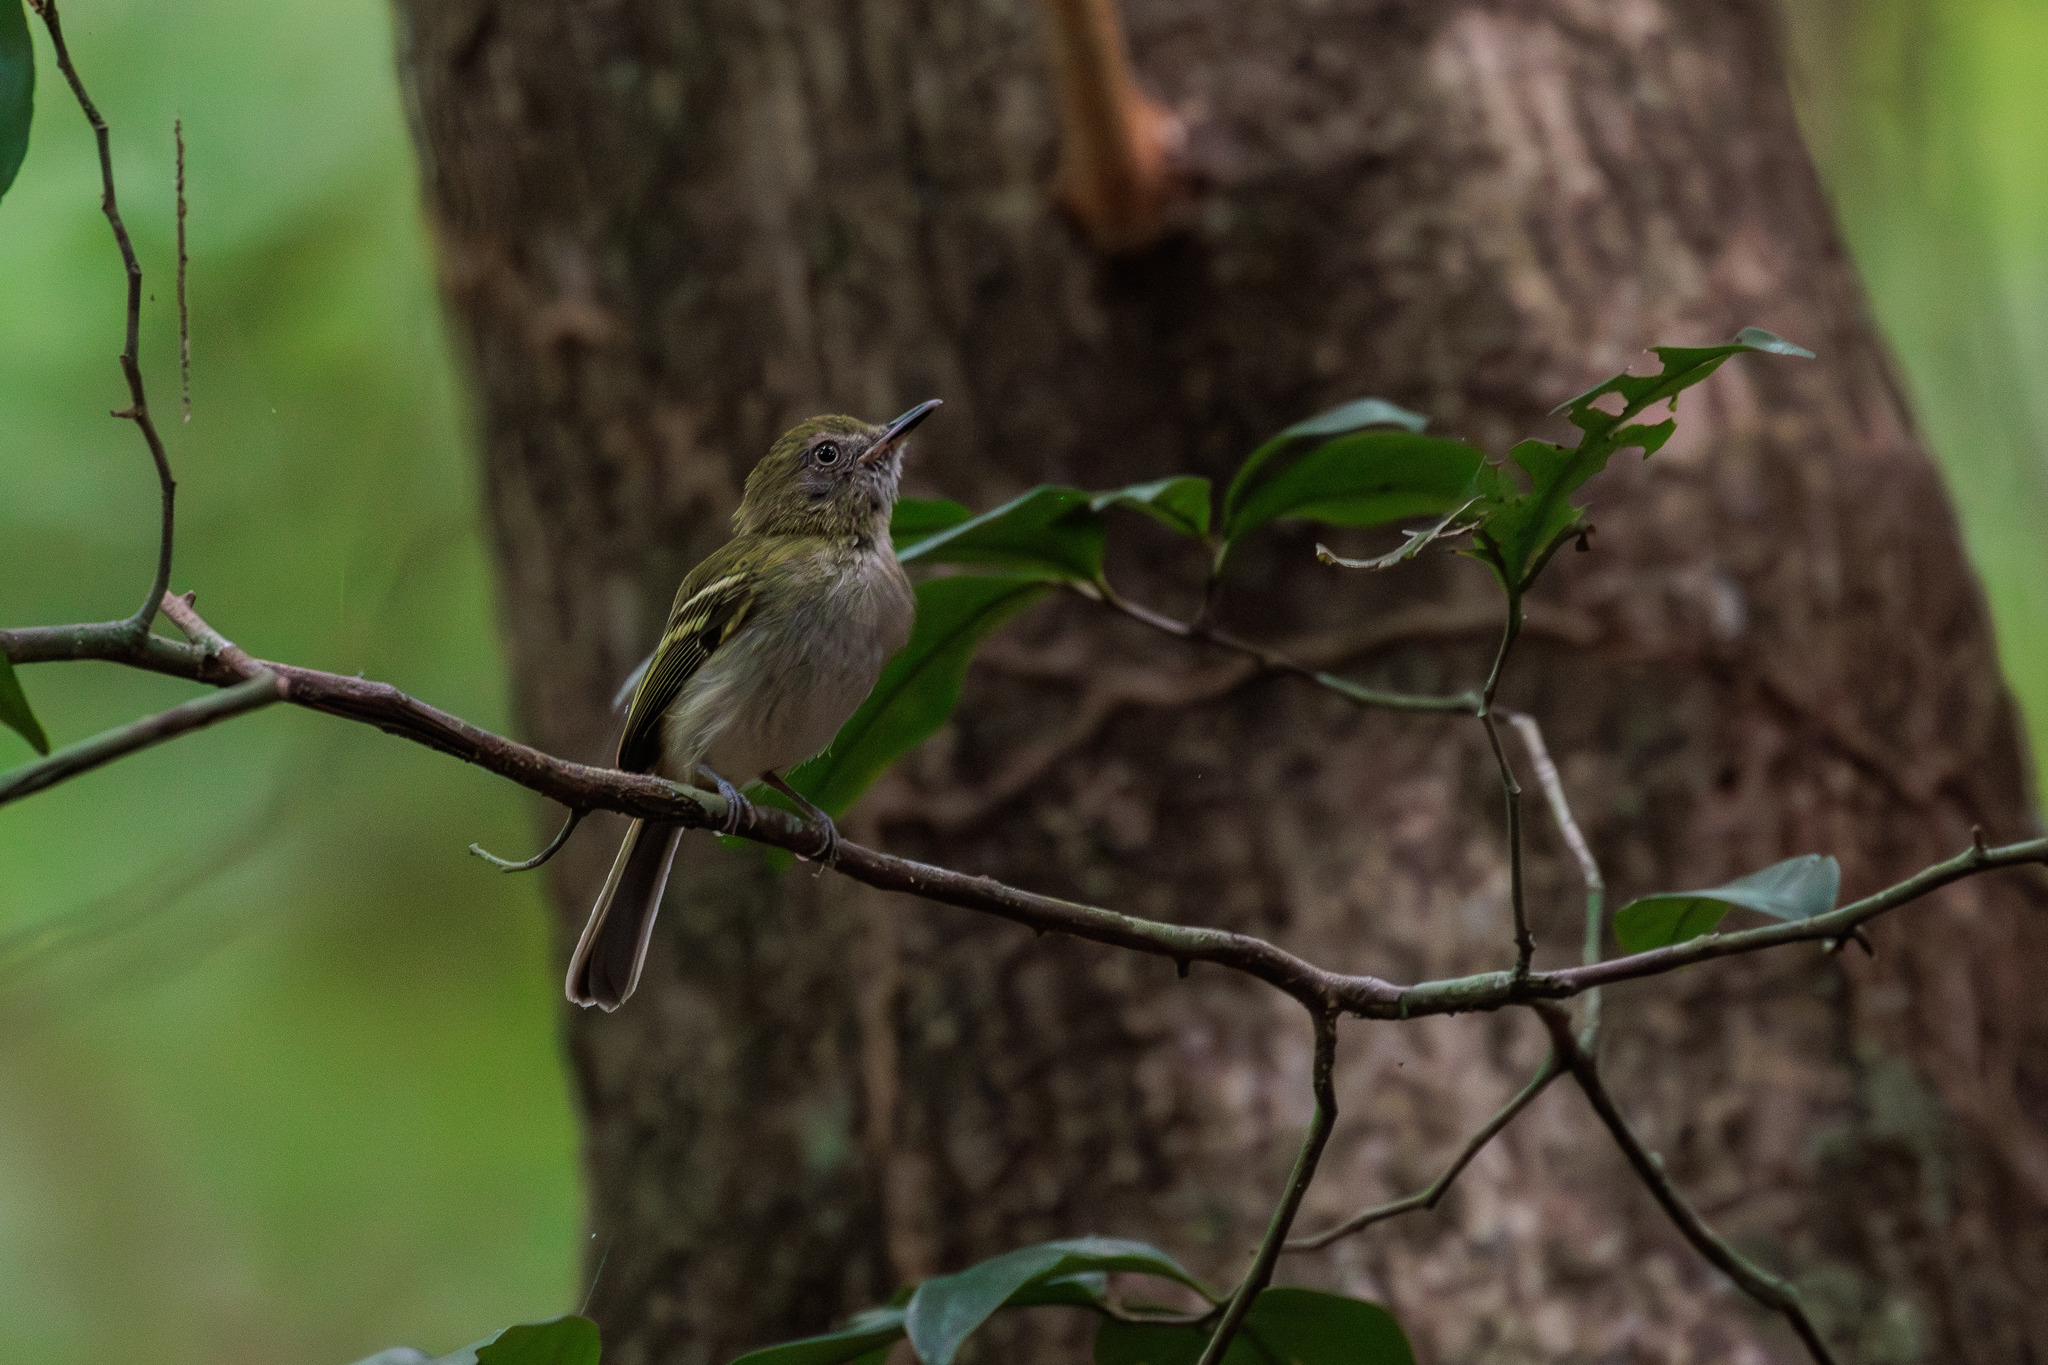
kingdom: Animalia
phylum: Chordata
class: Aves
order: Passeriformes
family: Tyrannidae
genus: Hemitriccus
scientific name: Hemitriccus griseipectus
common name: White-bellied tody-tyrant
